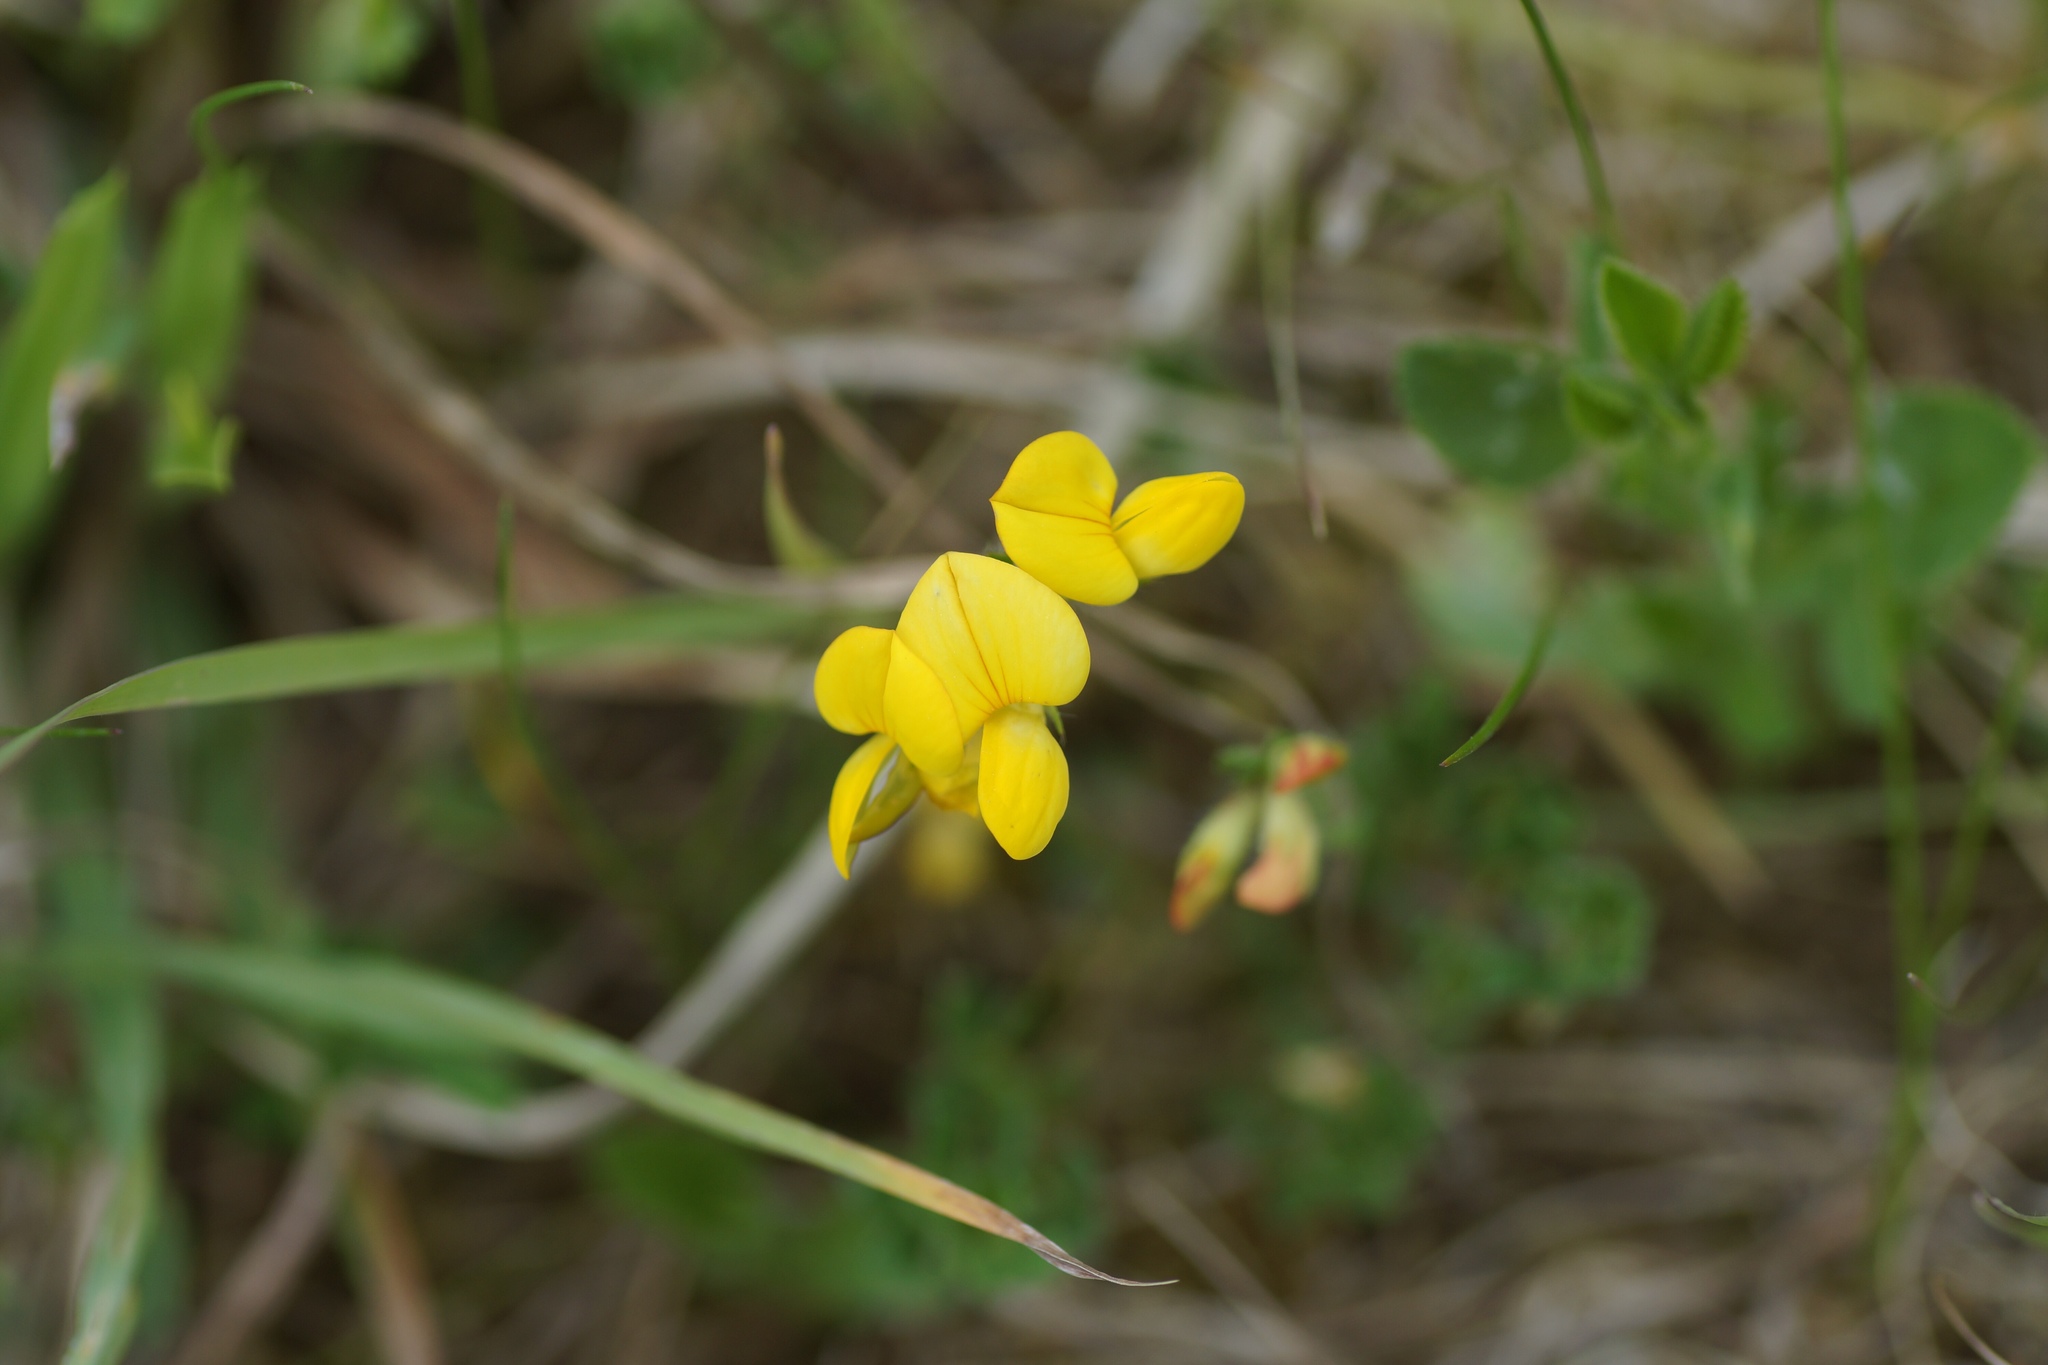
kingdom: Plantae
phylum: Tracheophyta
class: Magnoliopsida
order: Fabales
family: Fabaceae
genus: Lotus
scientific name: Lotus corniculatus
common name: Common bird's-foot-trefoil
